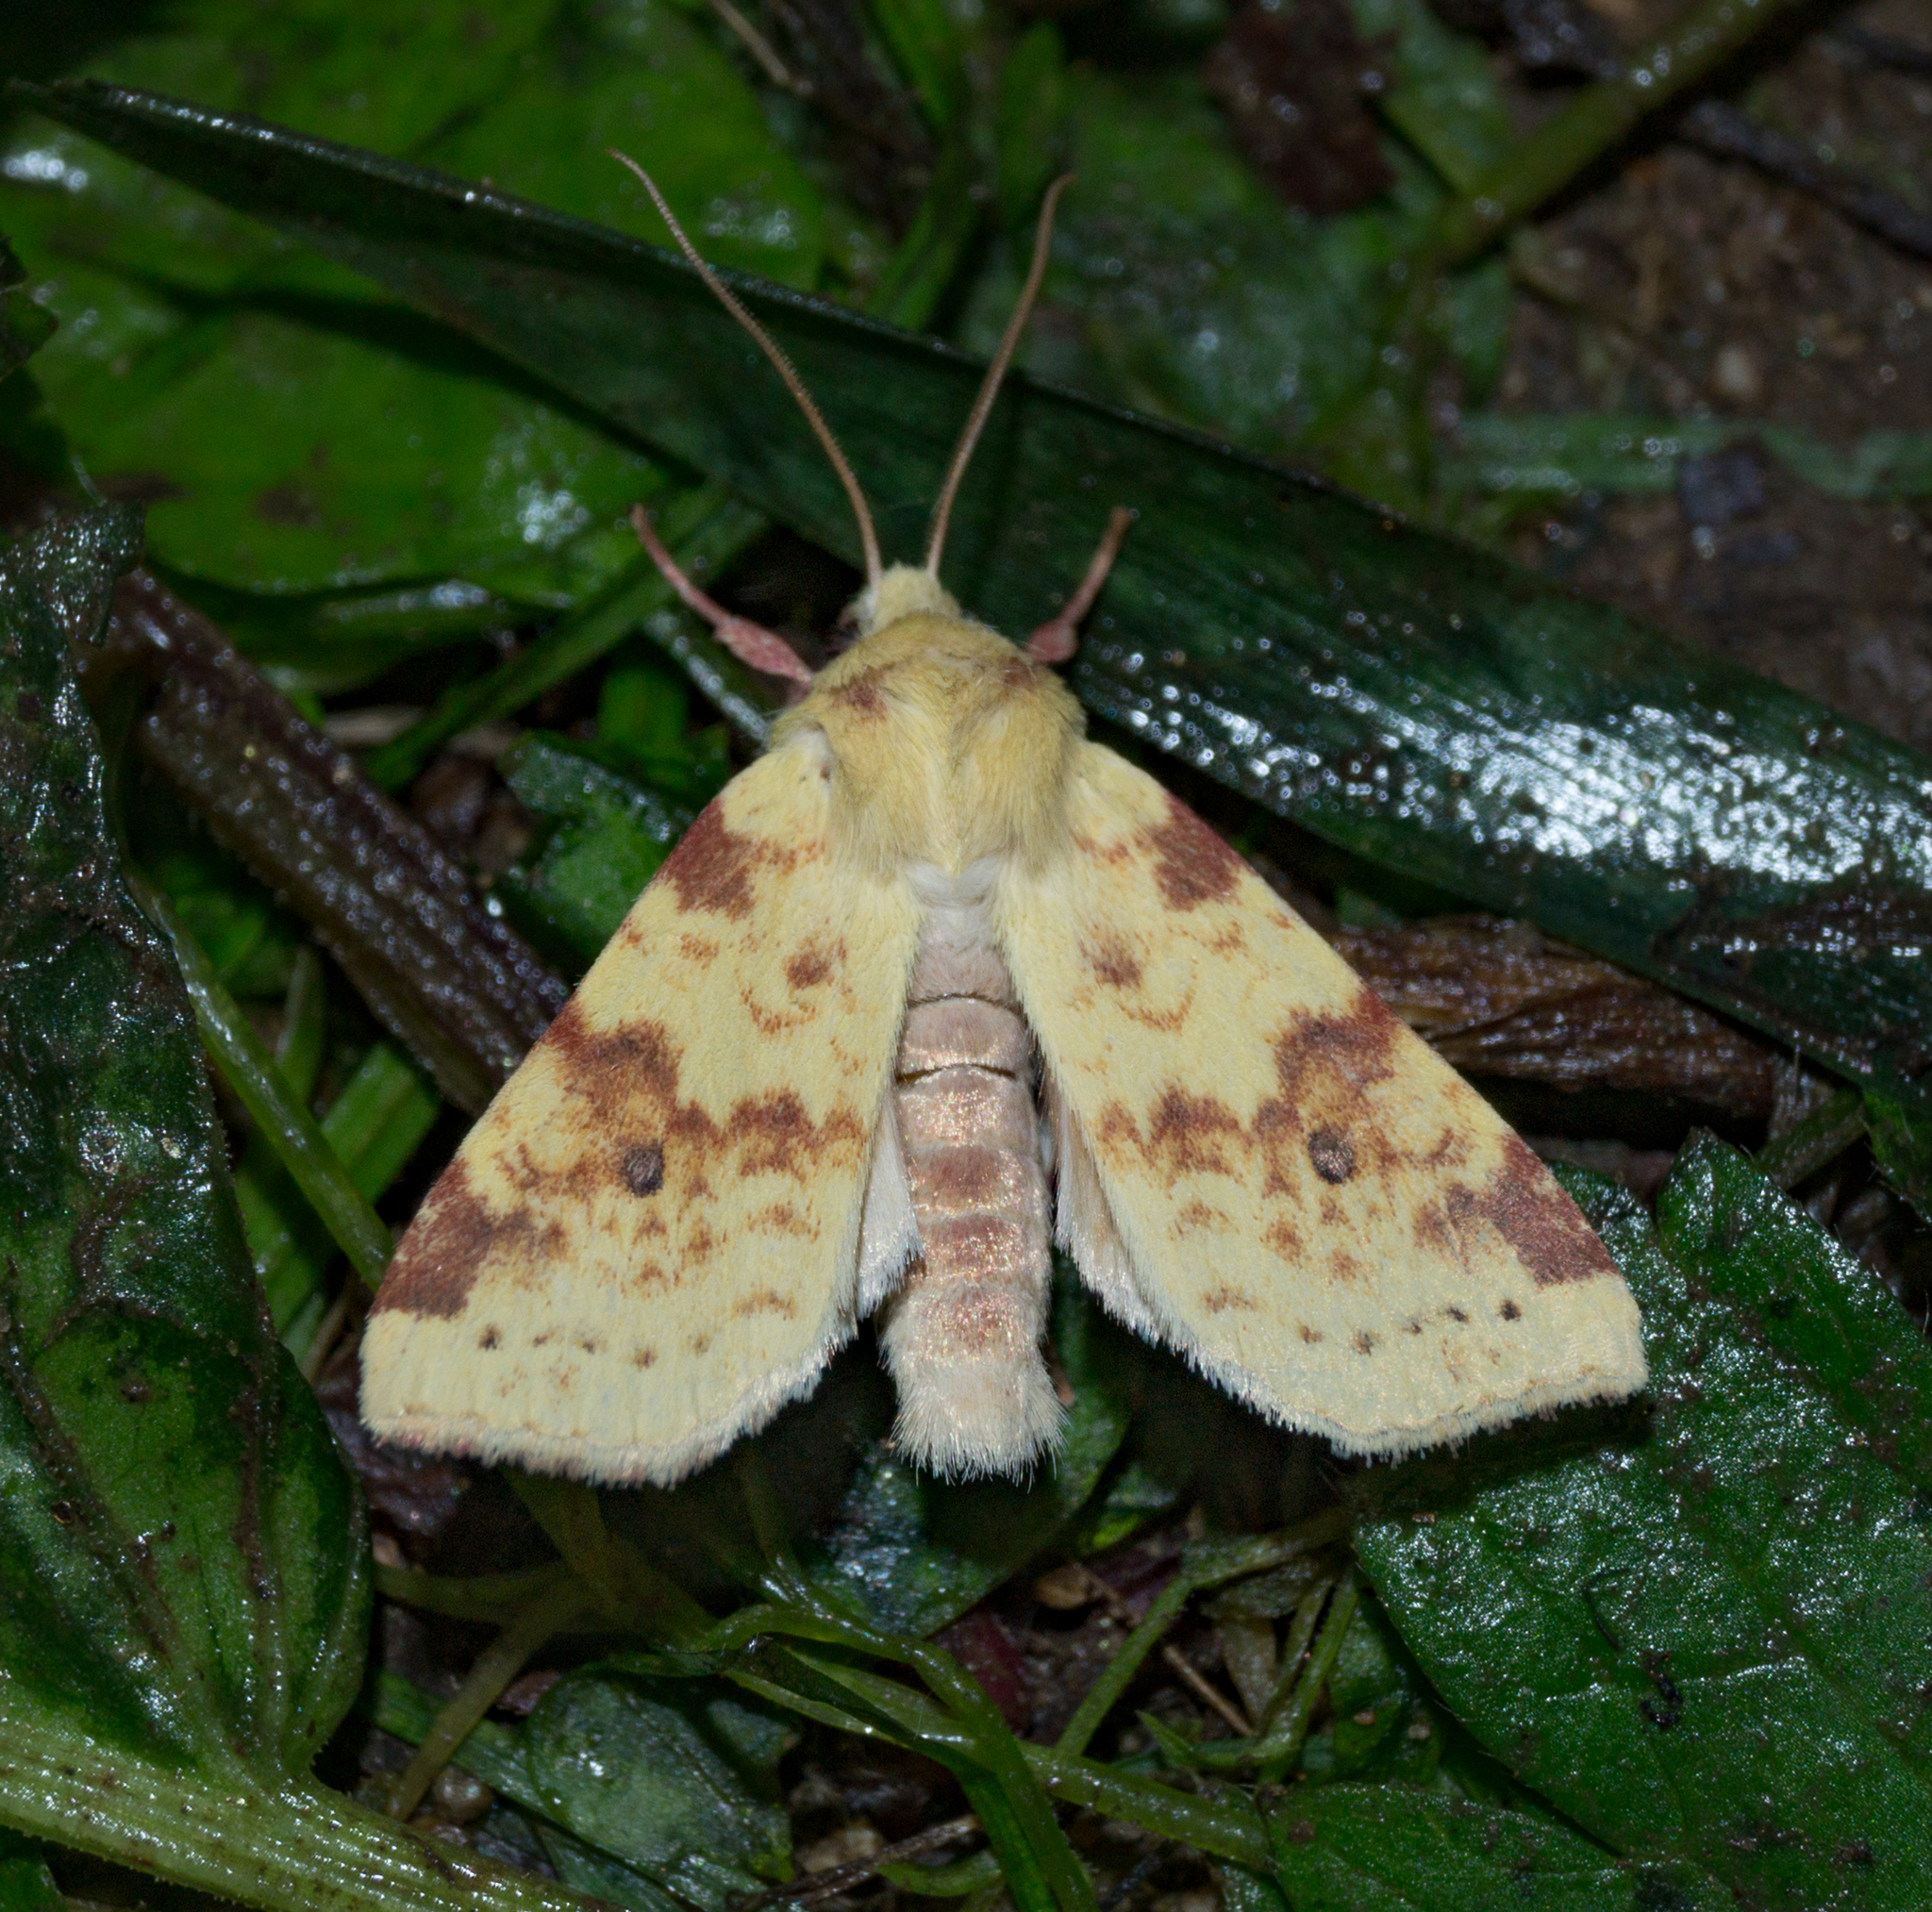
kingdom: Animalia
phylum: Arthropoda
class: Insecta
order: Lepidoptera
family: Noctuidae
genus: Xanthia
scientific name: Xanthia icteritia
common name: The sallow
